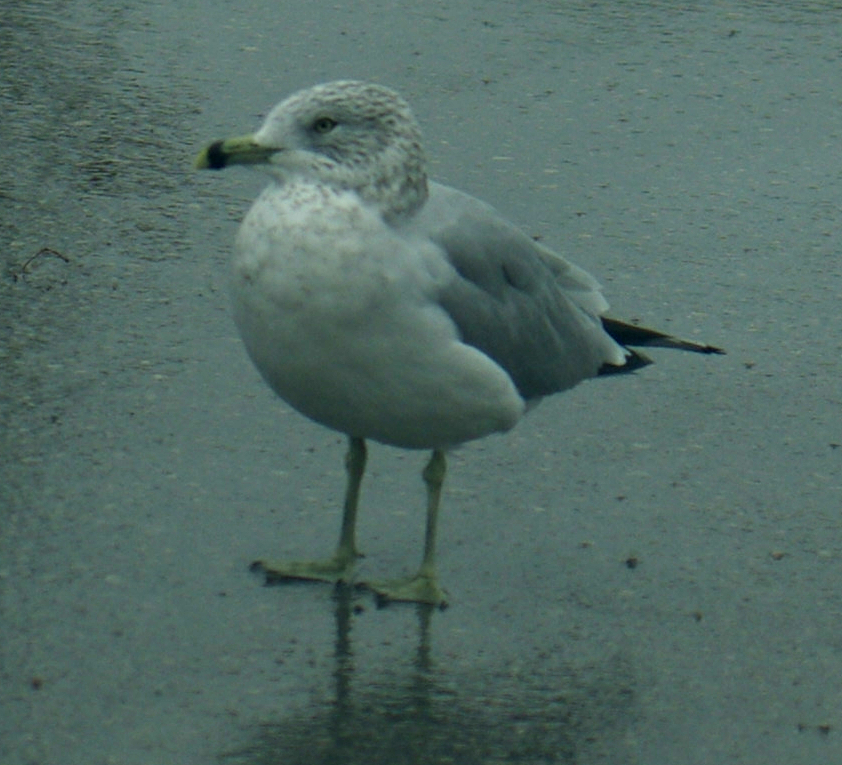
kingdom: Animalia
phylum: Chordata
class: Aves
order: Charadriiformes
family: Laridae
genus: Larus
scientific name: Larus delawarensis
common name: Ring-billed gull
